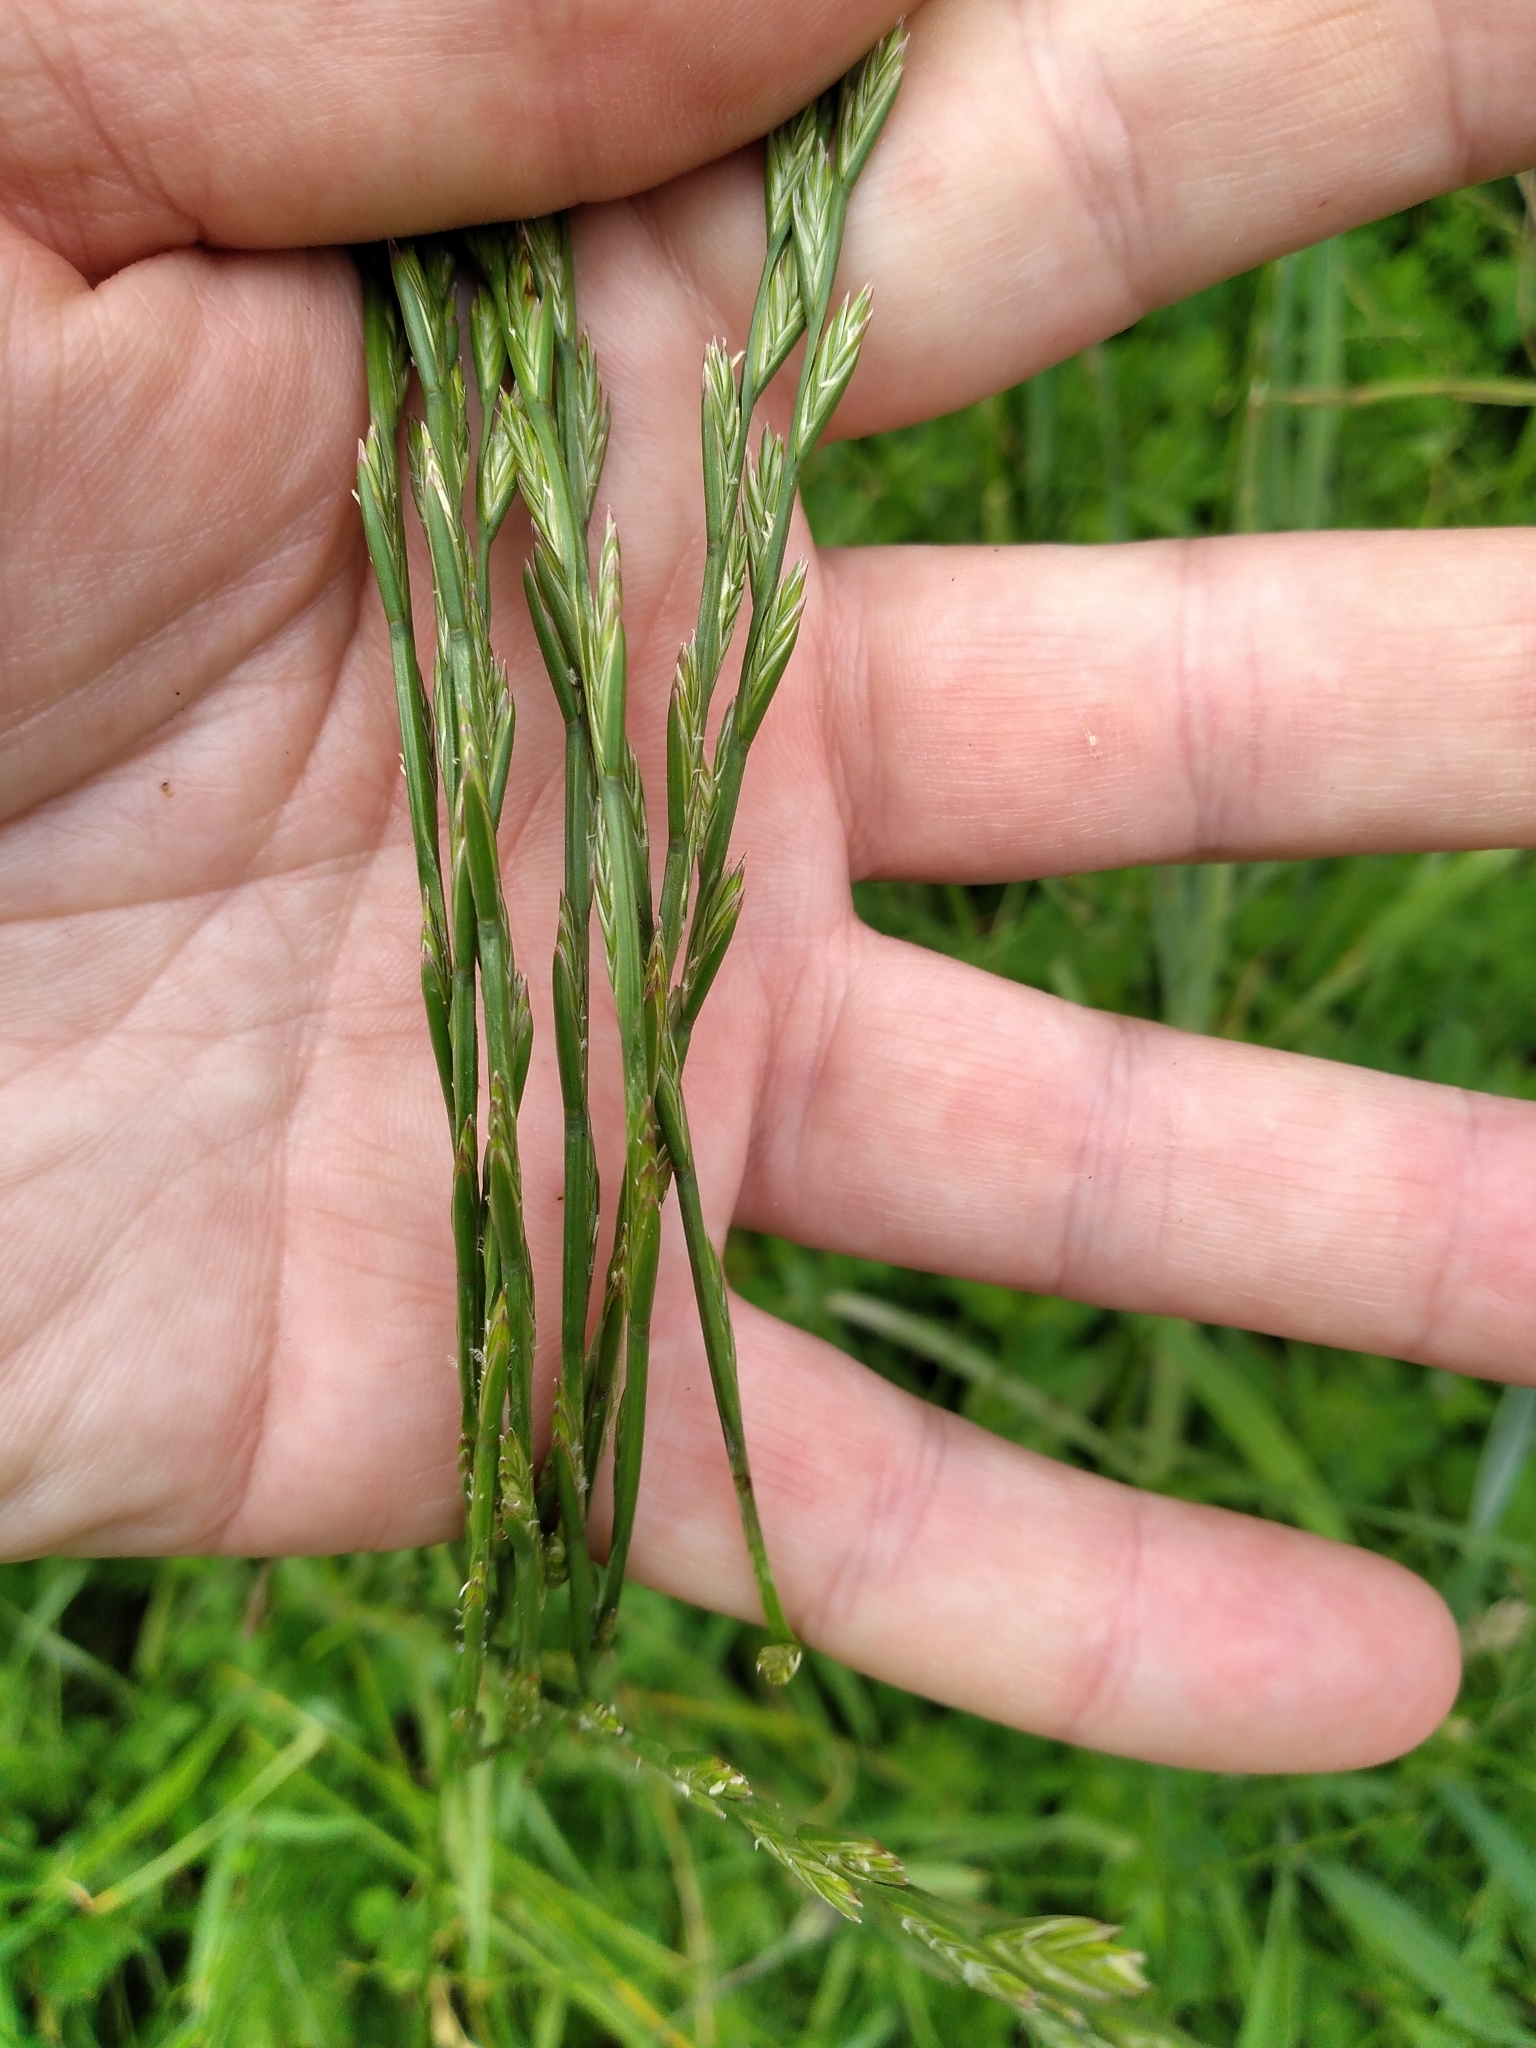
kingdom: Plantae
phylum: Tracheophyta
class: Liliopsida
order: Poales
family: Poaceae
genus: Lolium
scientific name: Lolium perenne
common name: Perennial ryegrass
